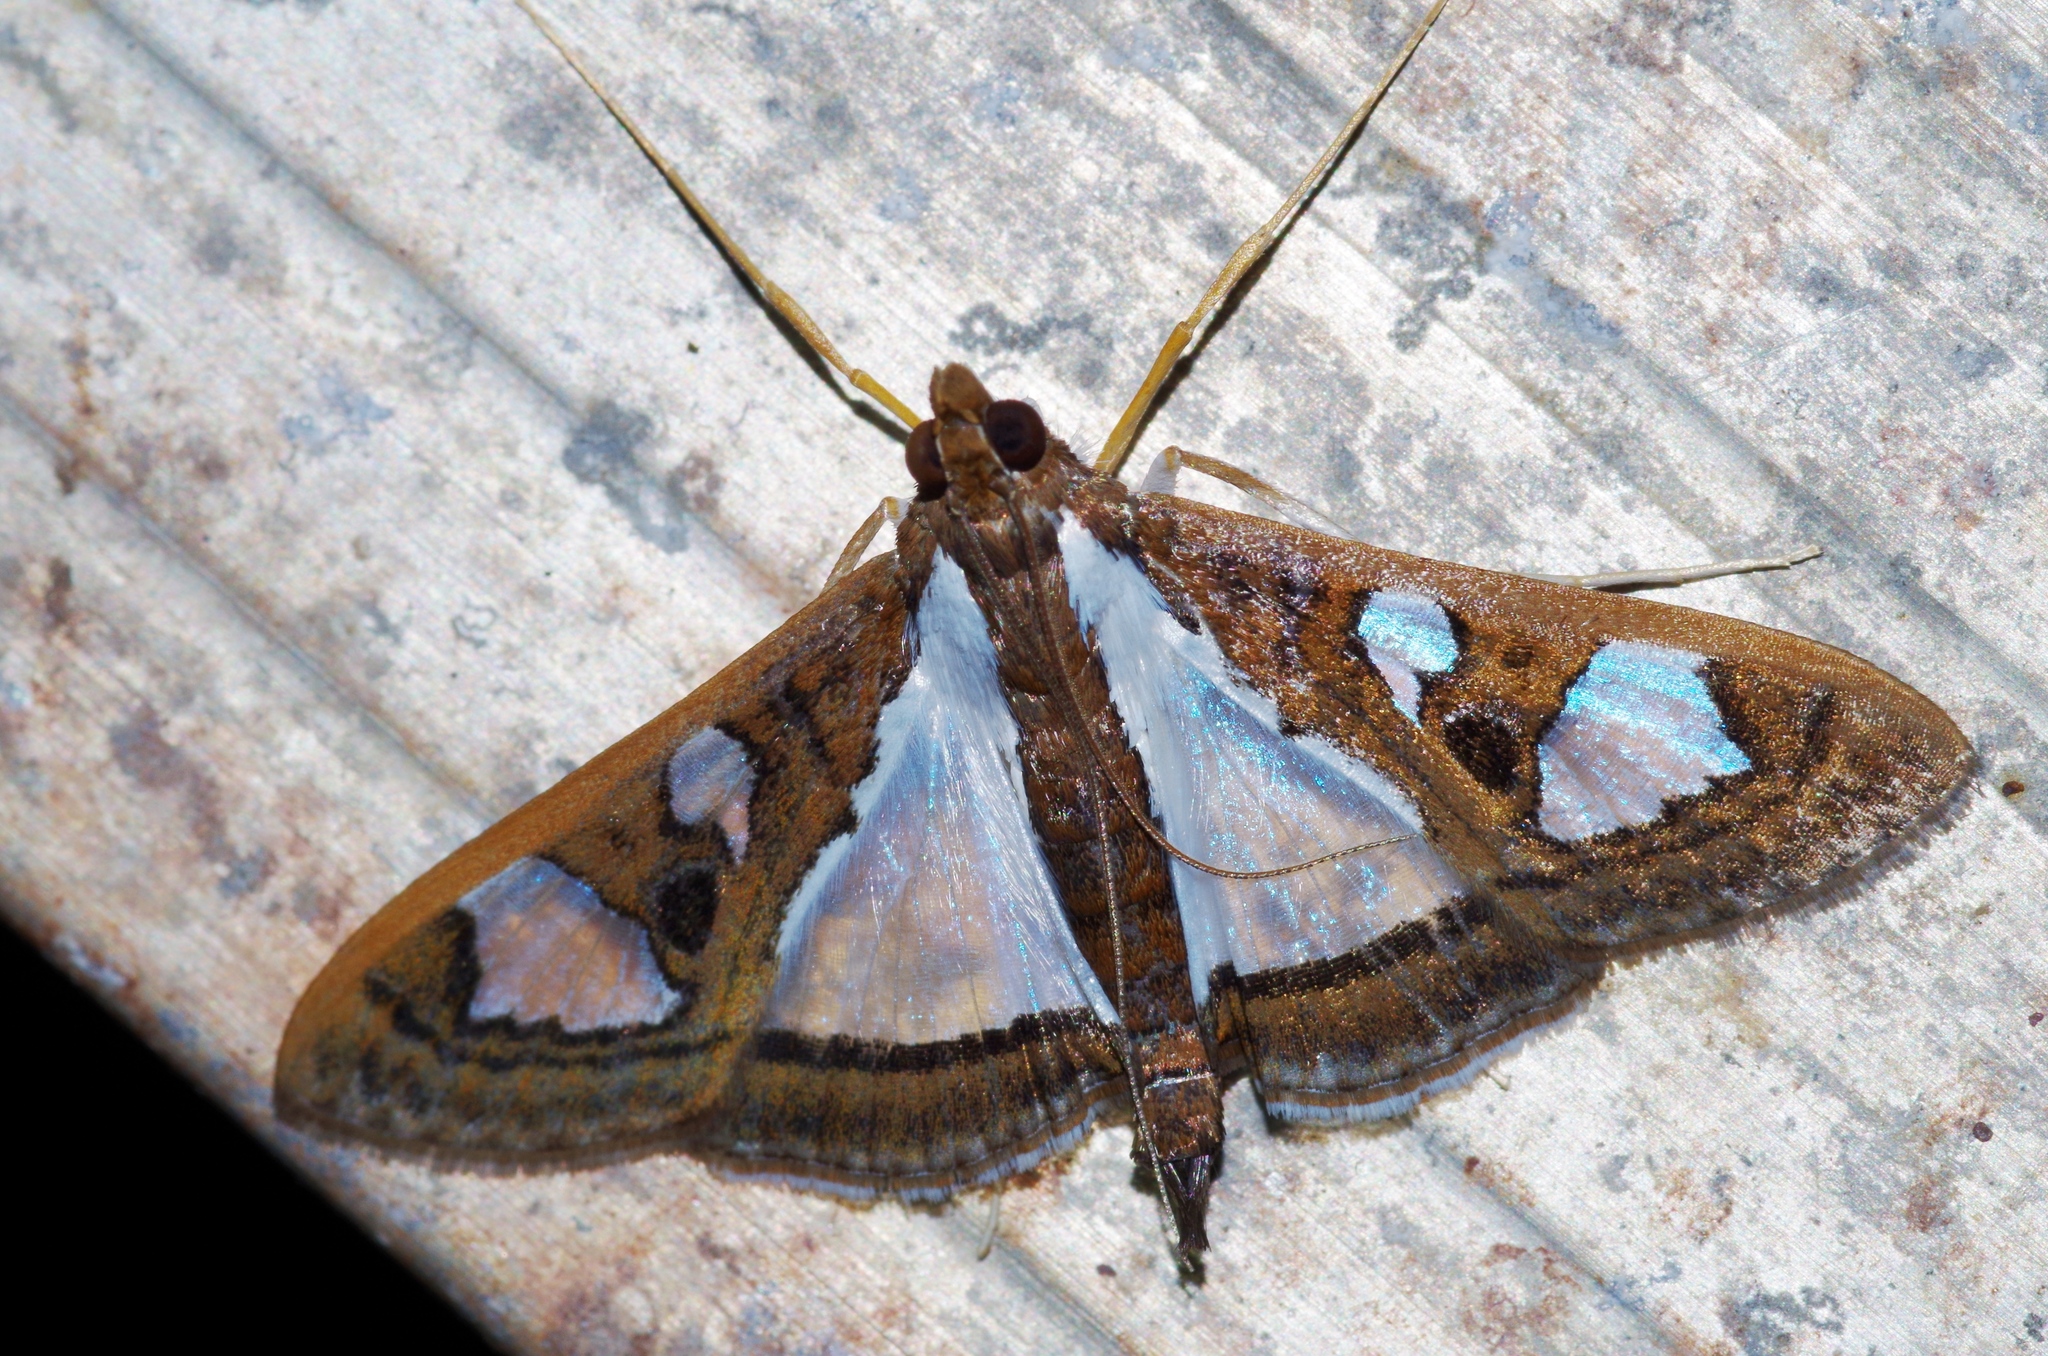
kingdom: Animalia
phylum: Arthropoda
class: Insecta
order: Lepidoptera
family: Crambidae
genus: Glyphodes
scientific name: Glyphodes bivitralis
